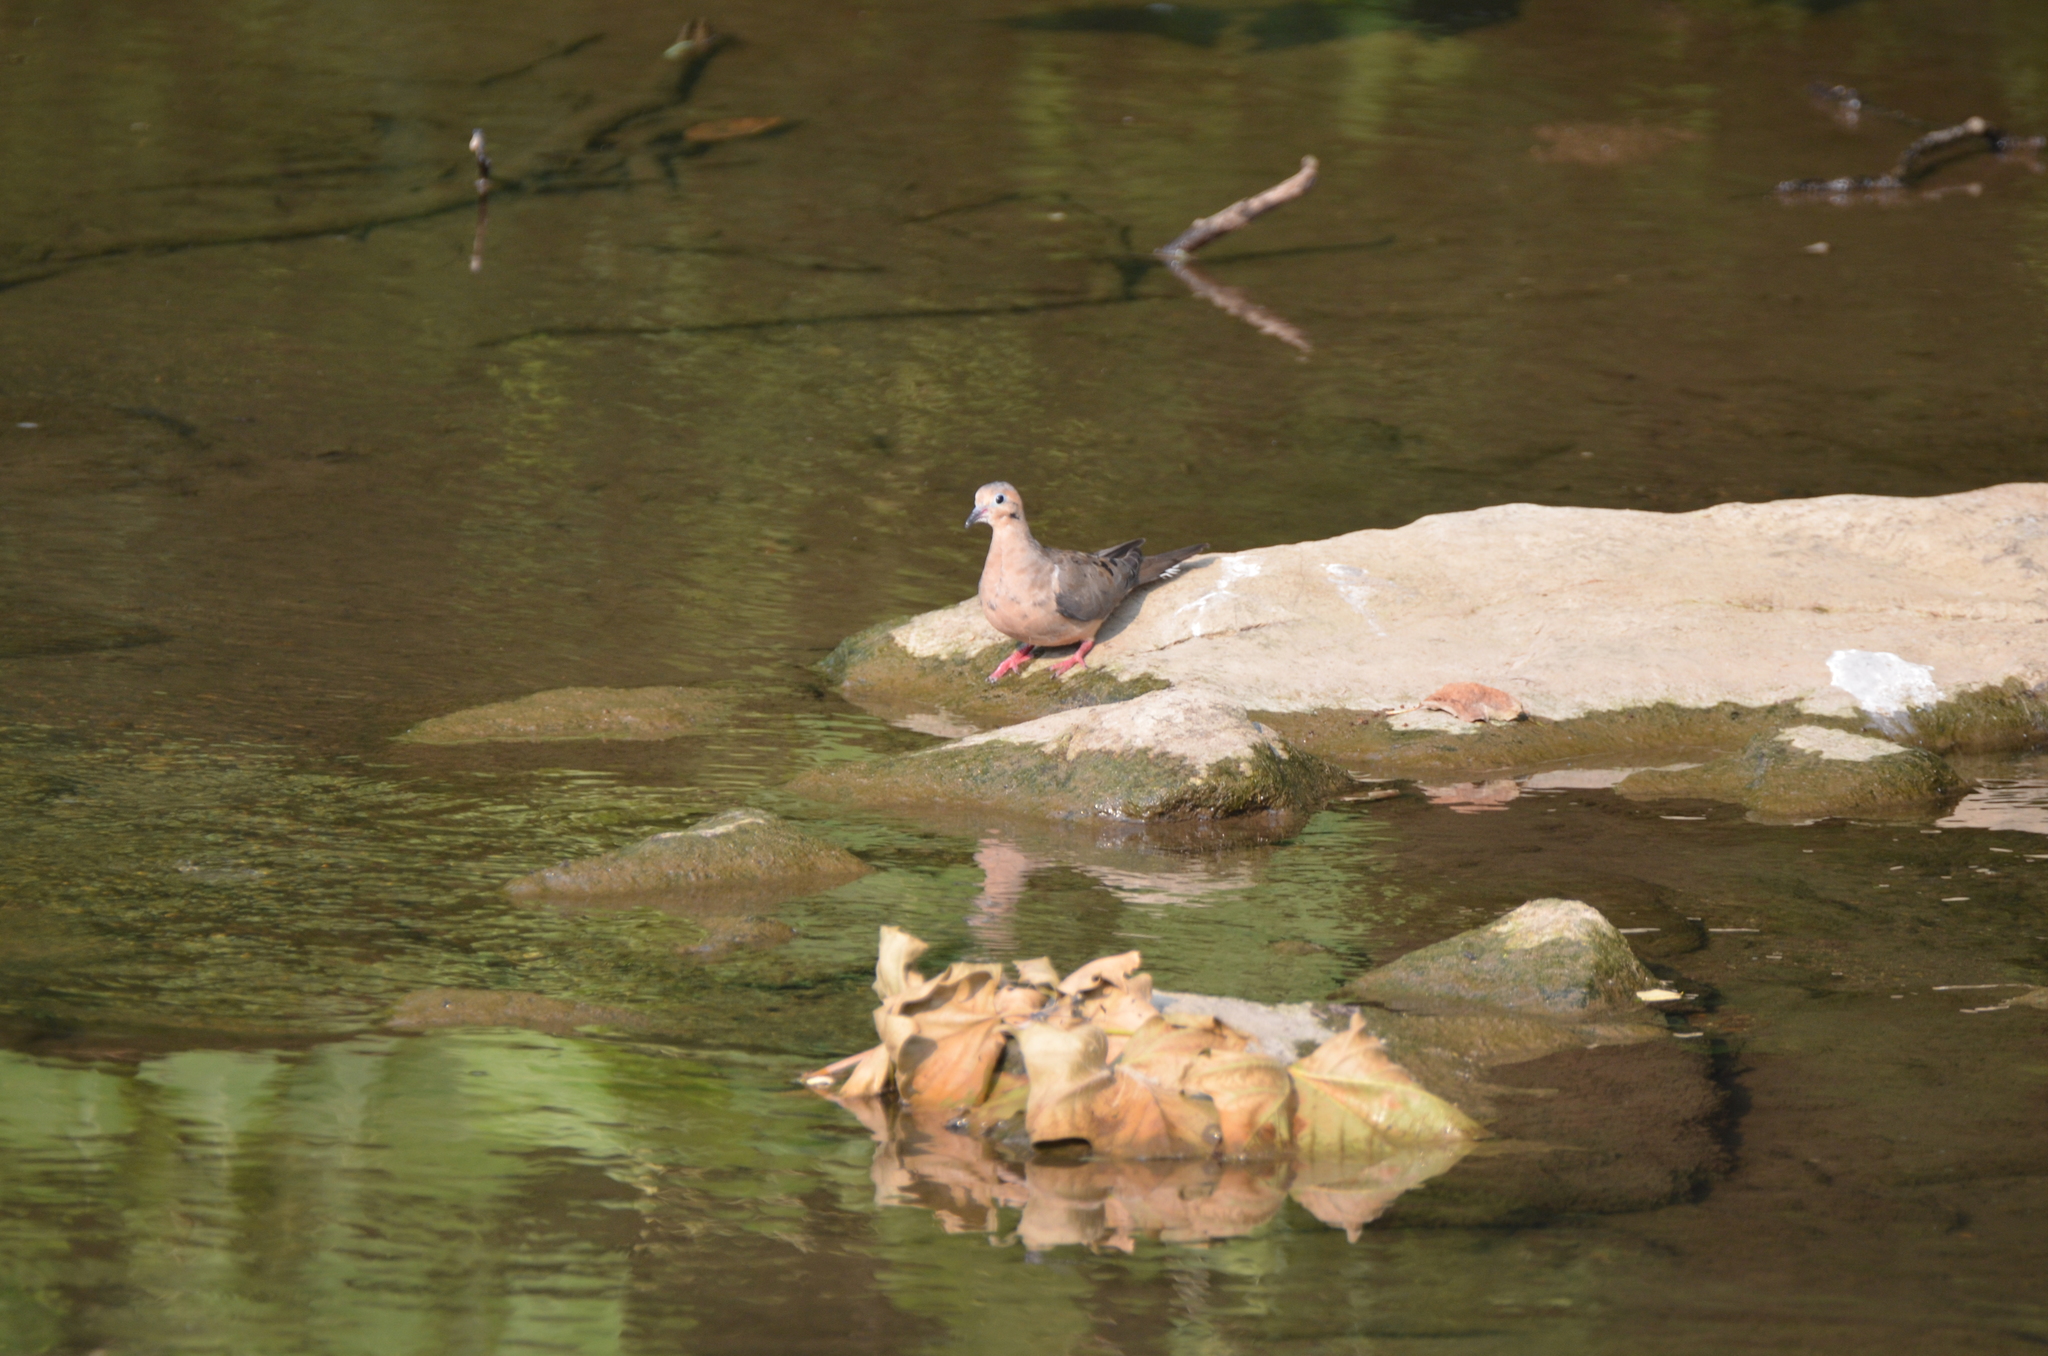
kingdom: Animalia
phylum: Chordata
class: Aves
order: Columbiformes
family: Columbidae
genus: Zenaida
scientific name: Zenaida macroura
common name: Mourning dove
